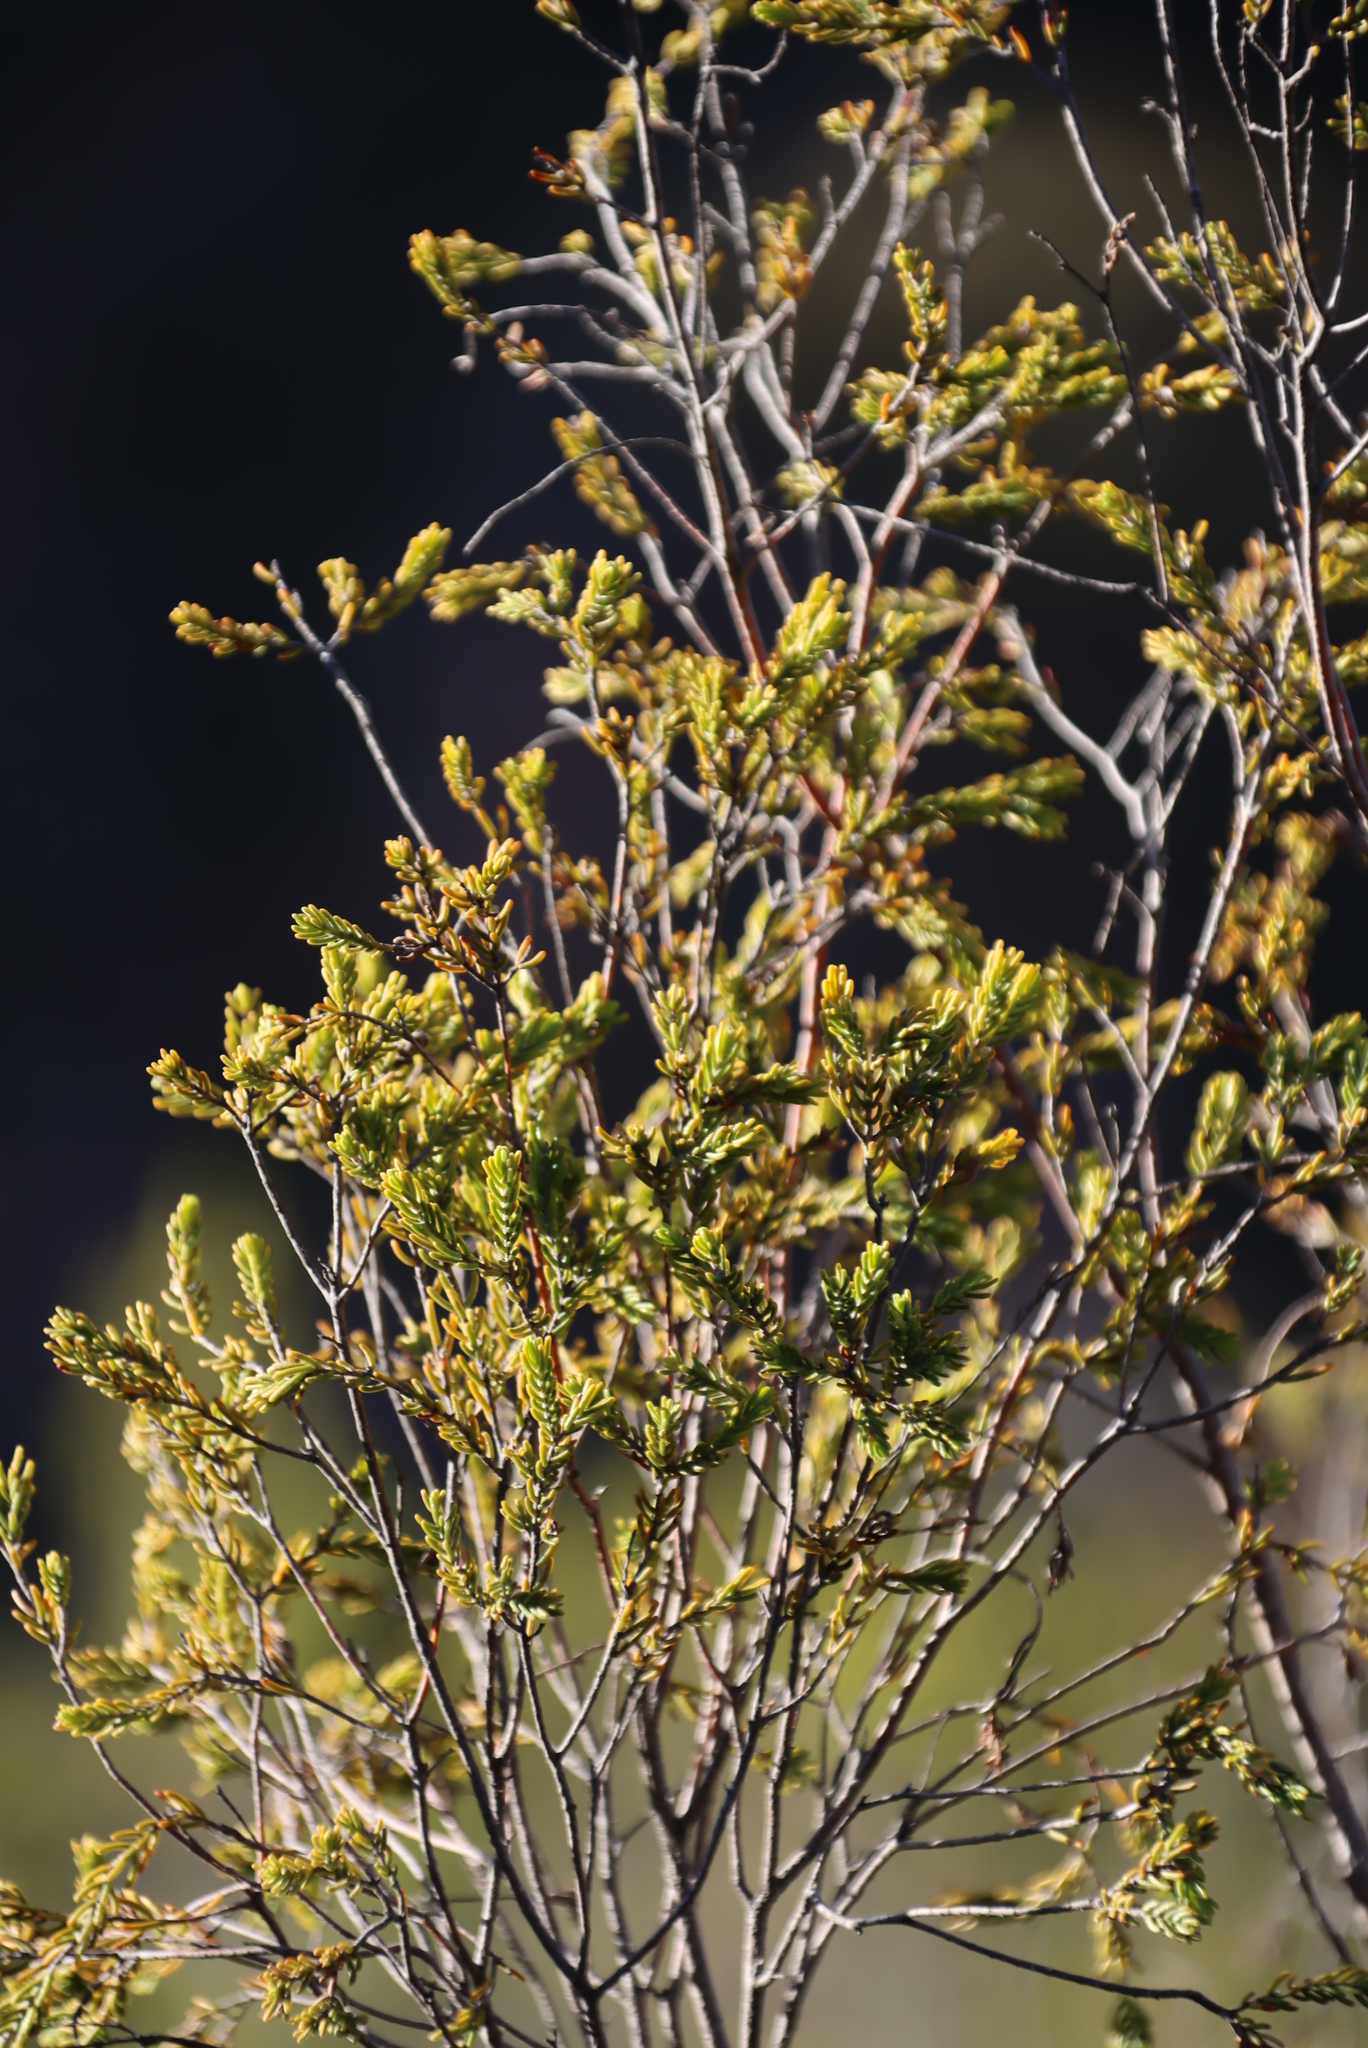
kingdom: Plantae
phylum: Tracheophyta
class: Magnoliopsida
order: Malvales
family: Thymelaeaceae
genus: Passerina
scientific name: Passerina obtusifolia
